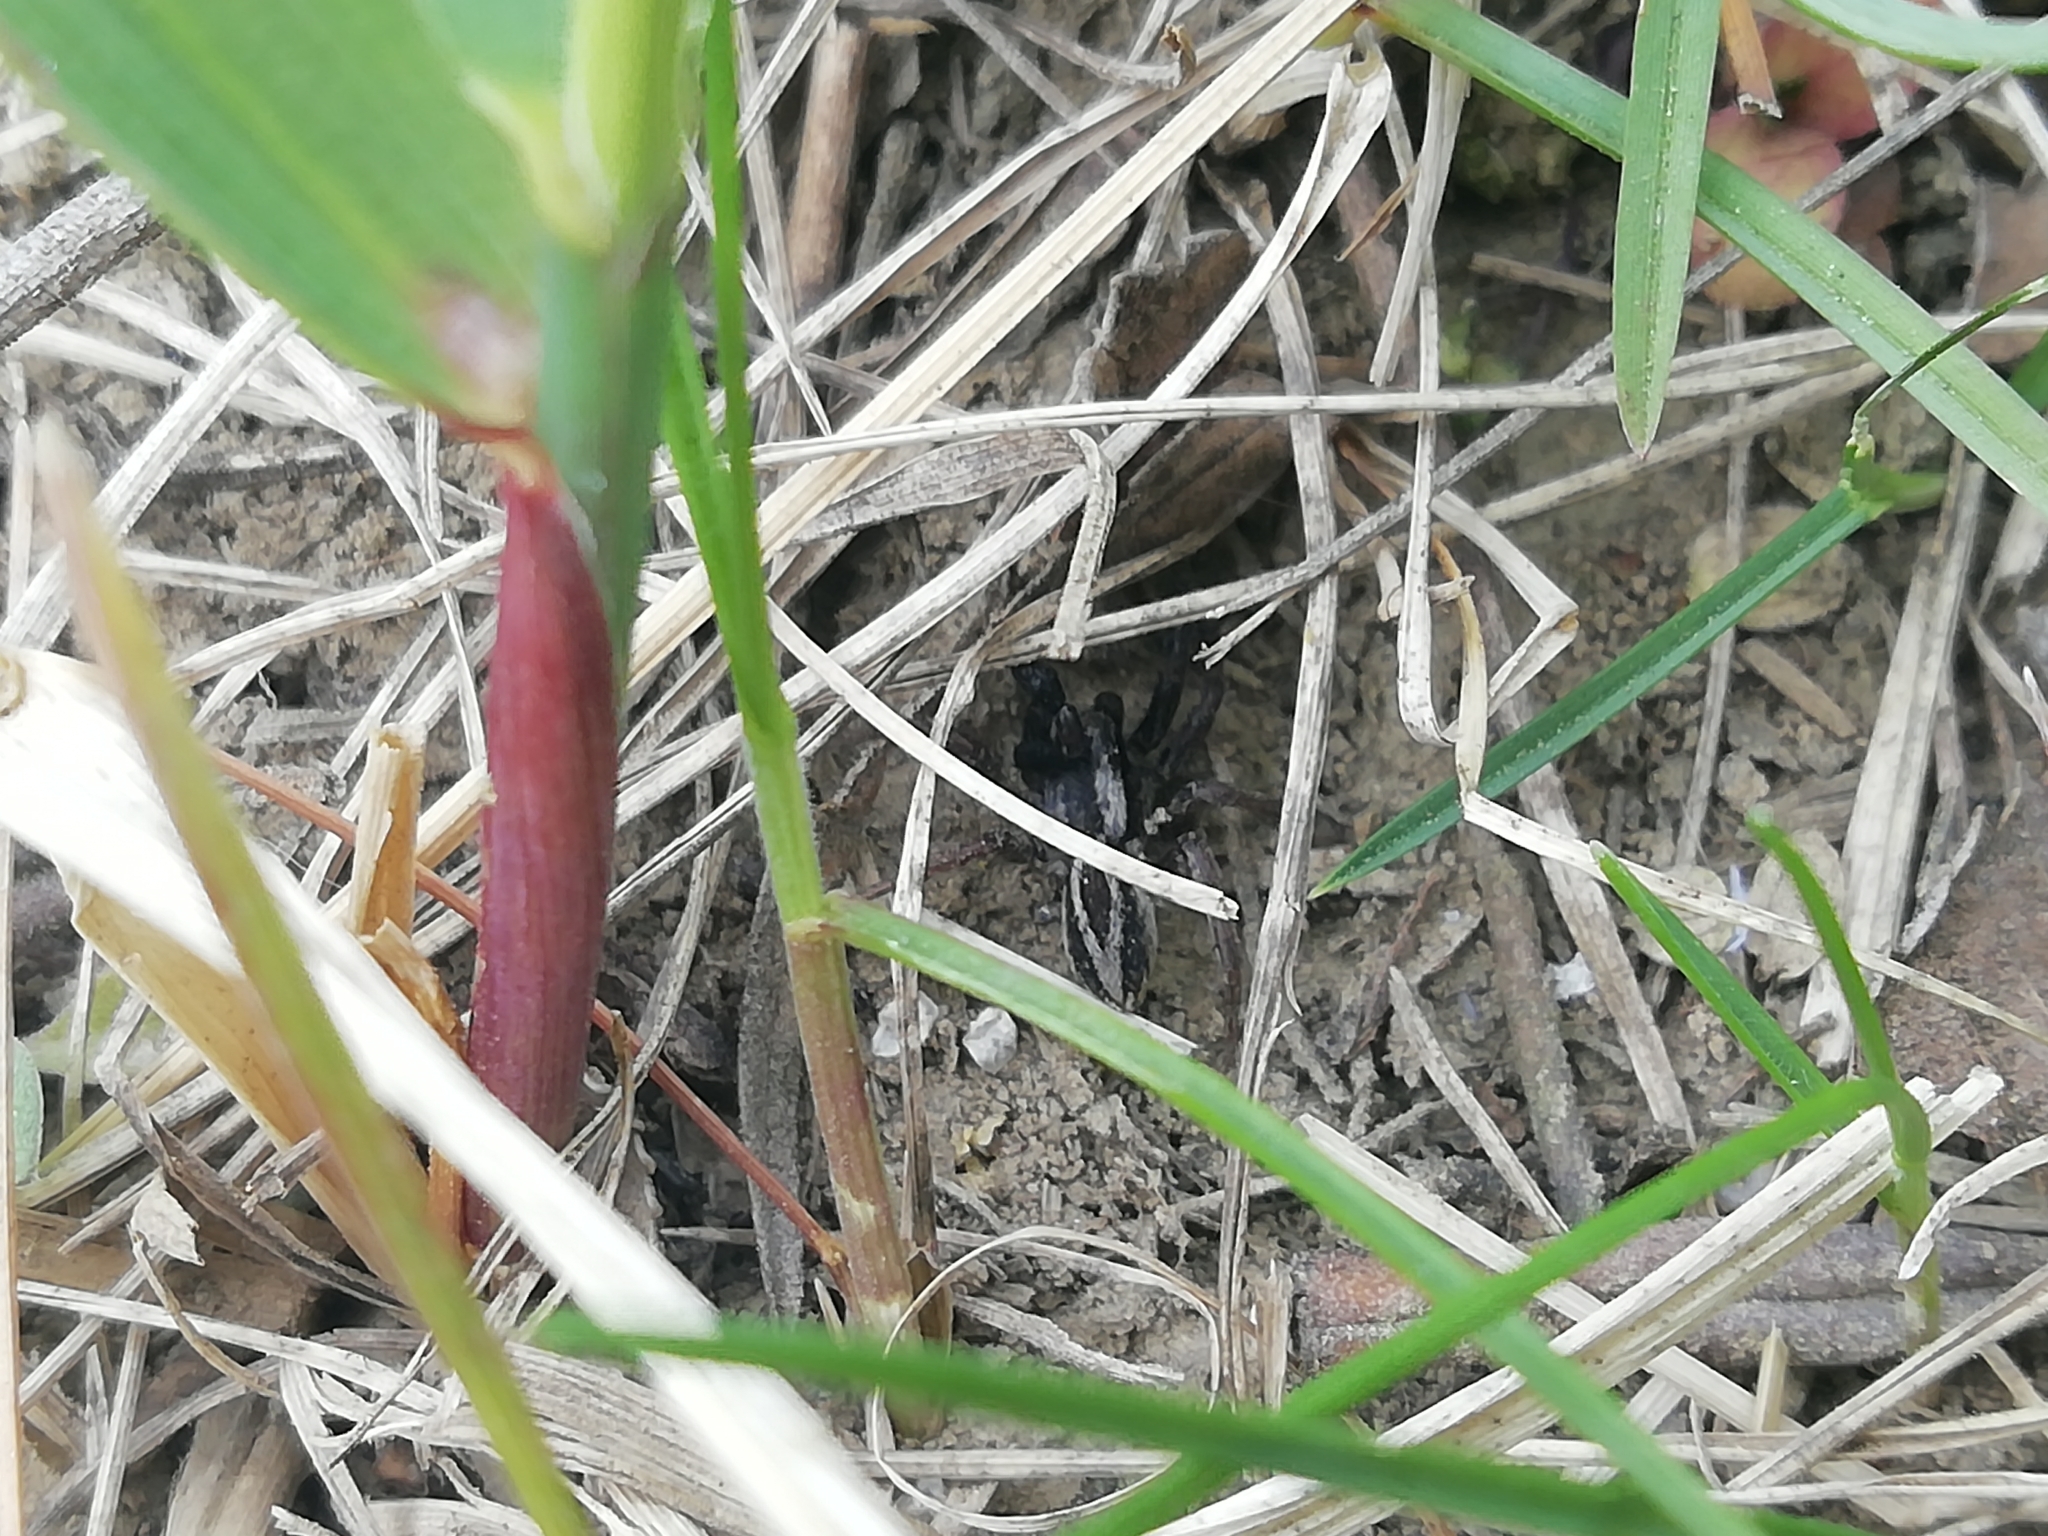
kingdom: Animalia
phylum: Arthropoda
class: Arachnida
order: Araneae
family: Lycosidae
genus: Alopecosa
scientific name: Alopecosa cuneata
